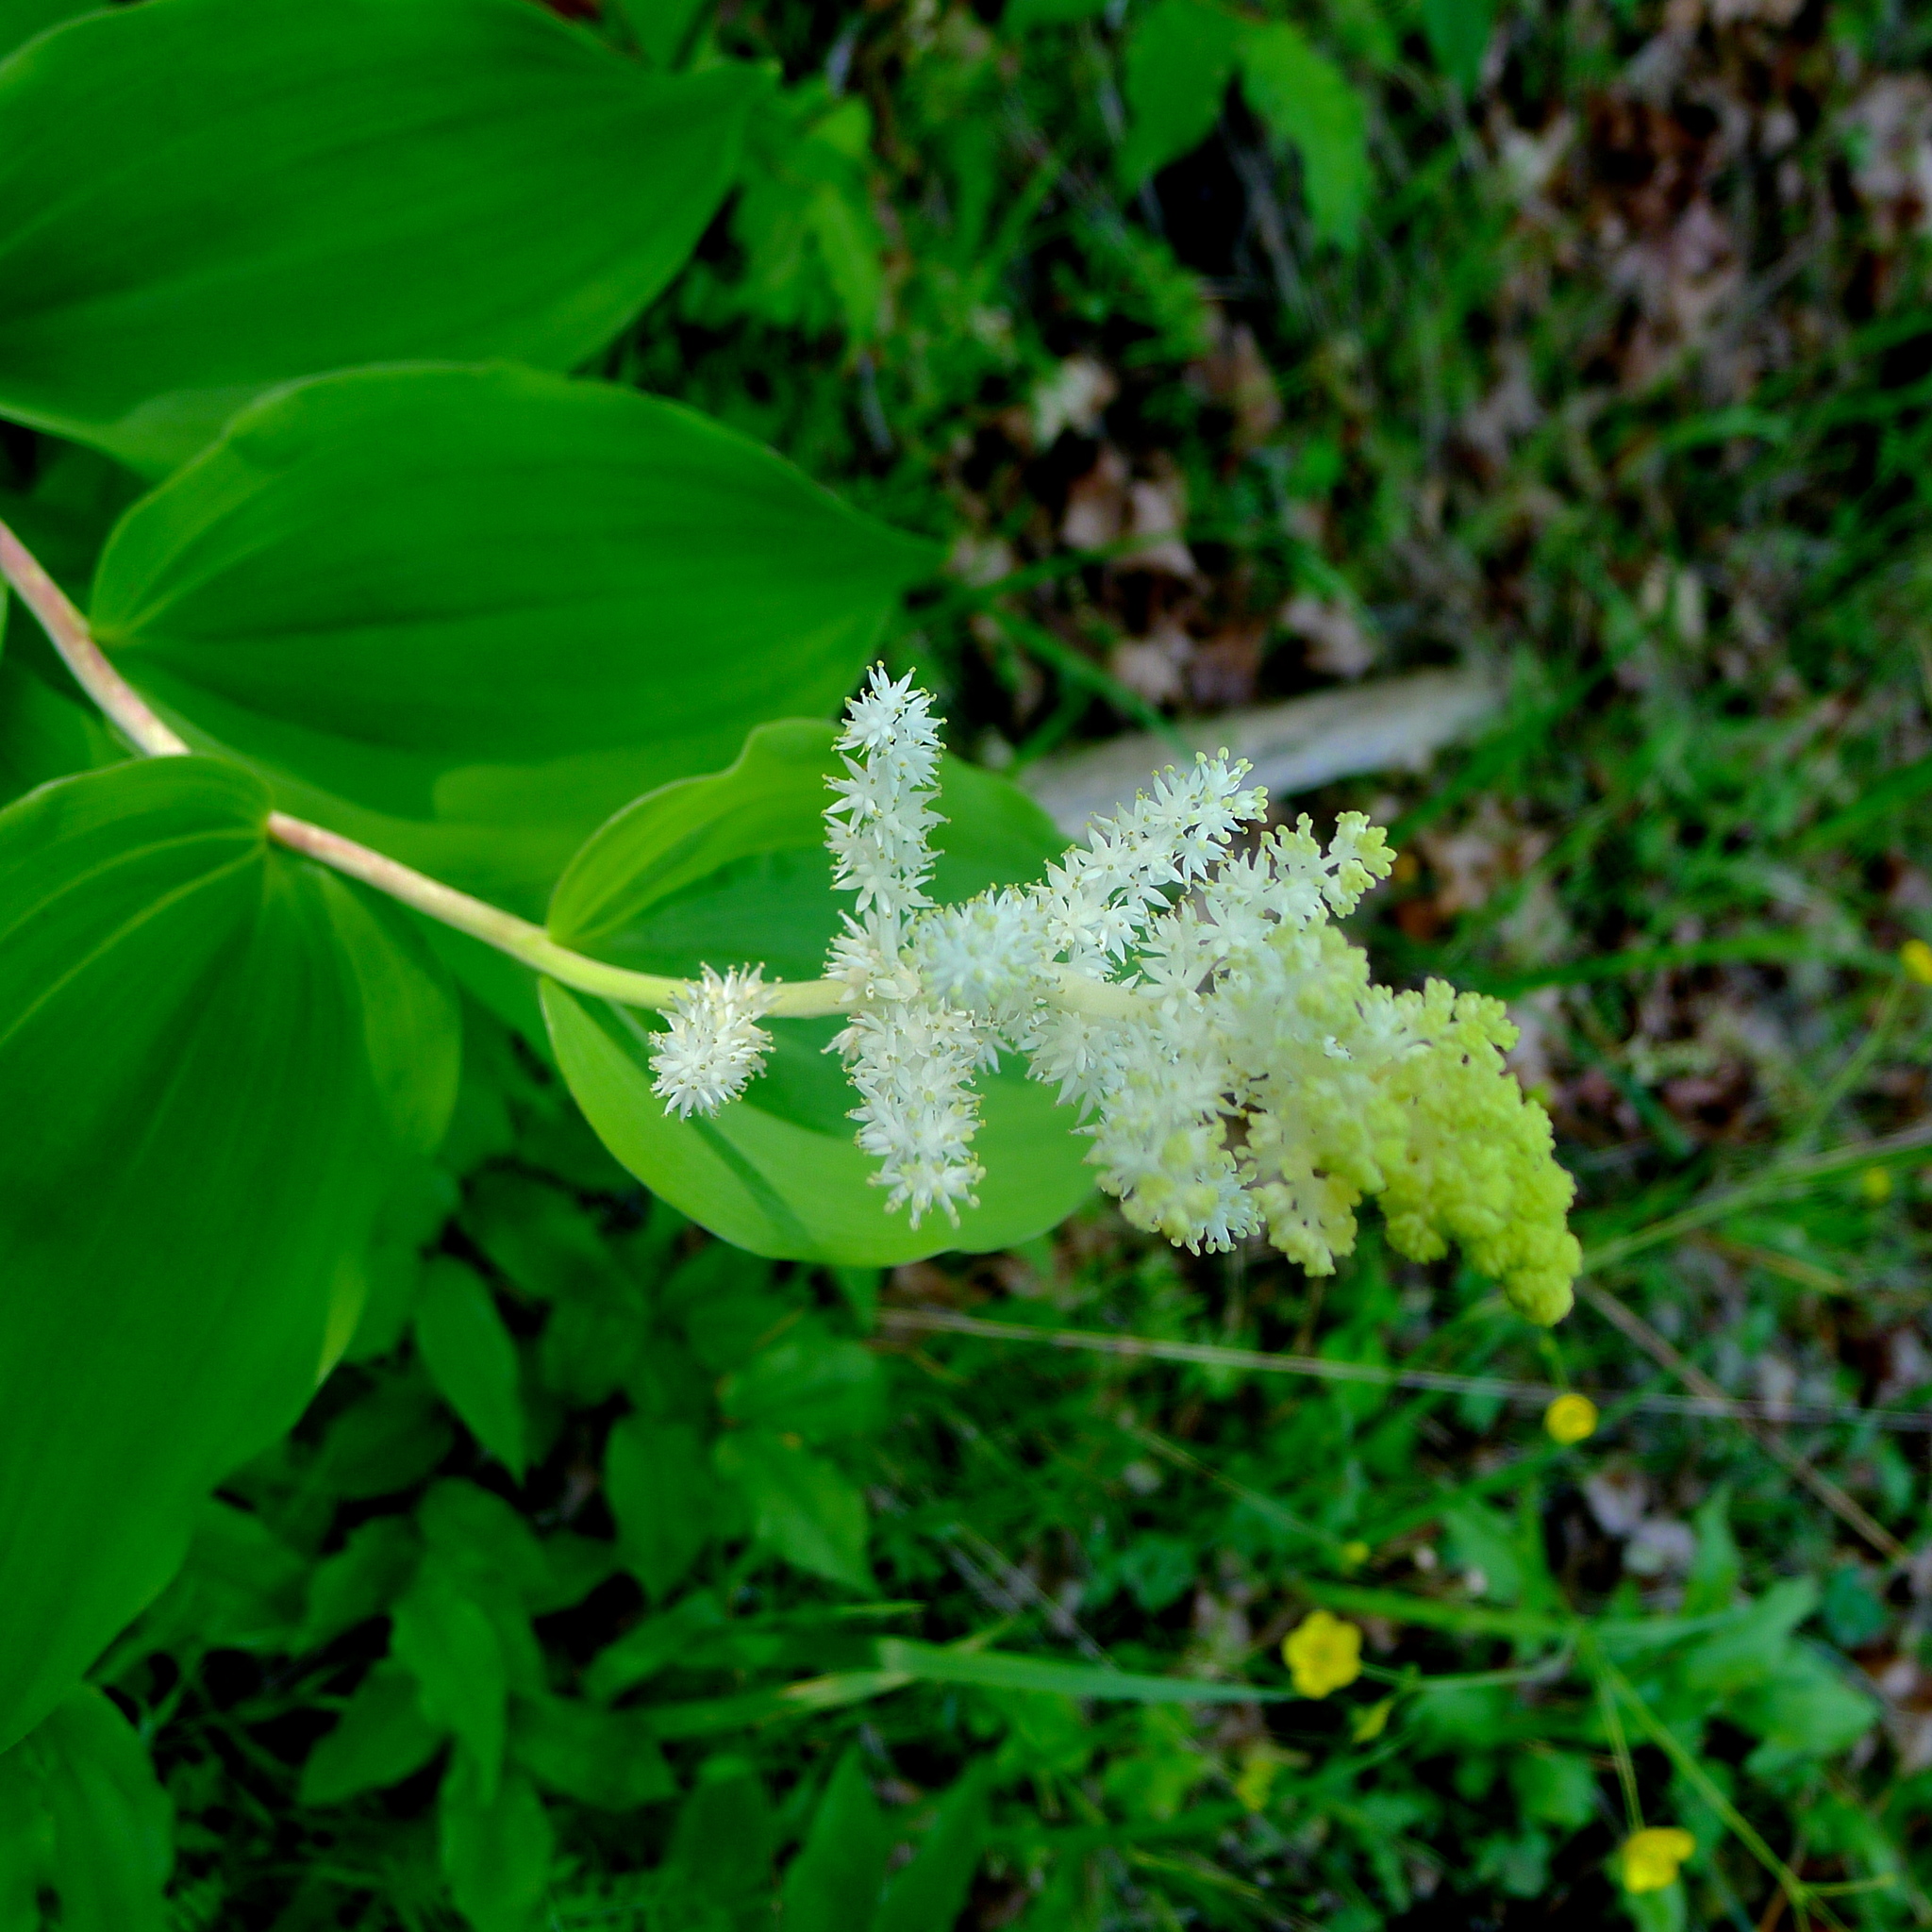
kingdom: Plantae
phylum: Tracheophyta
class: Liliopsida
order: Asparagales
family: Asparagaceae
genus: Maianthemum
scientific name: Maianthemum racemosum
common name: False spikenard
